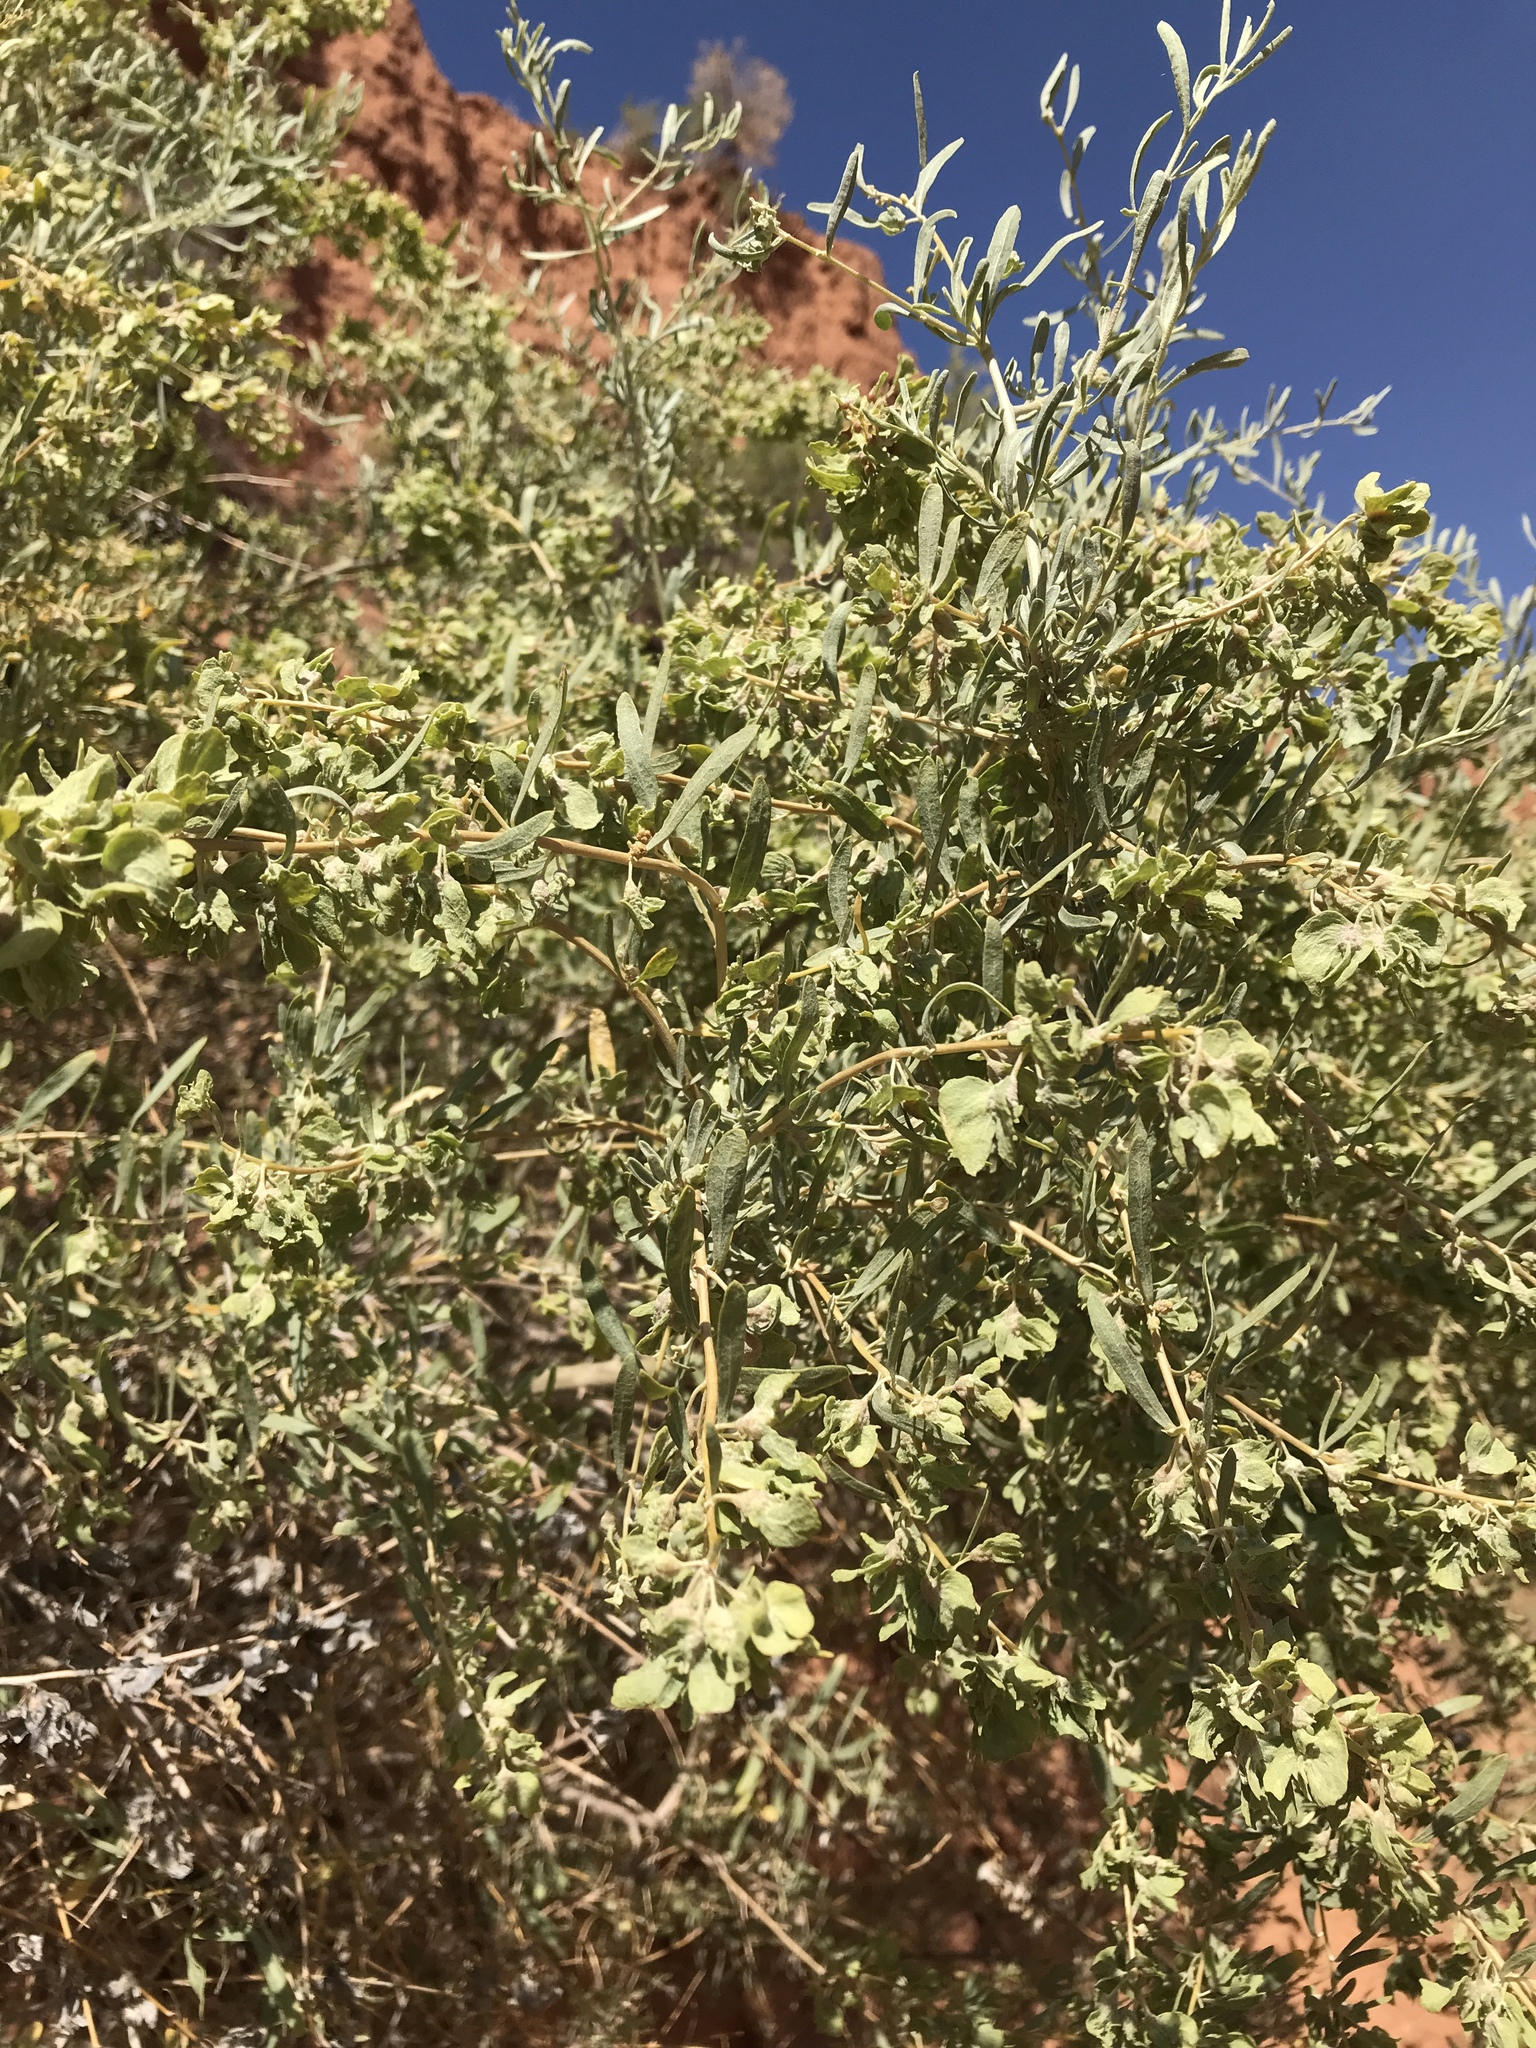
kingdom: Plantae
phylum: Tracheophyta
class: Magnoliopsida
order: Caryophyllales
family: Amaranthaceae
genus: Atriplex
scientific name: Atriplex canescens
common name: Four-wing saltbush
